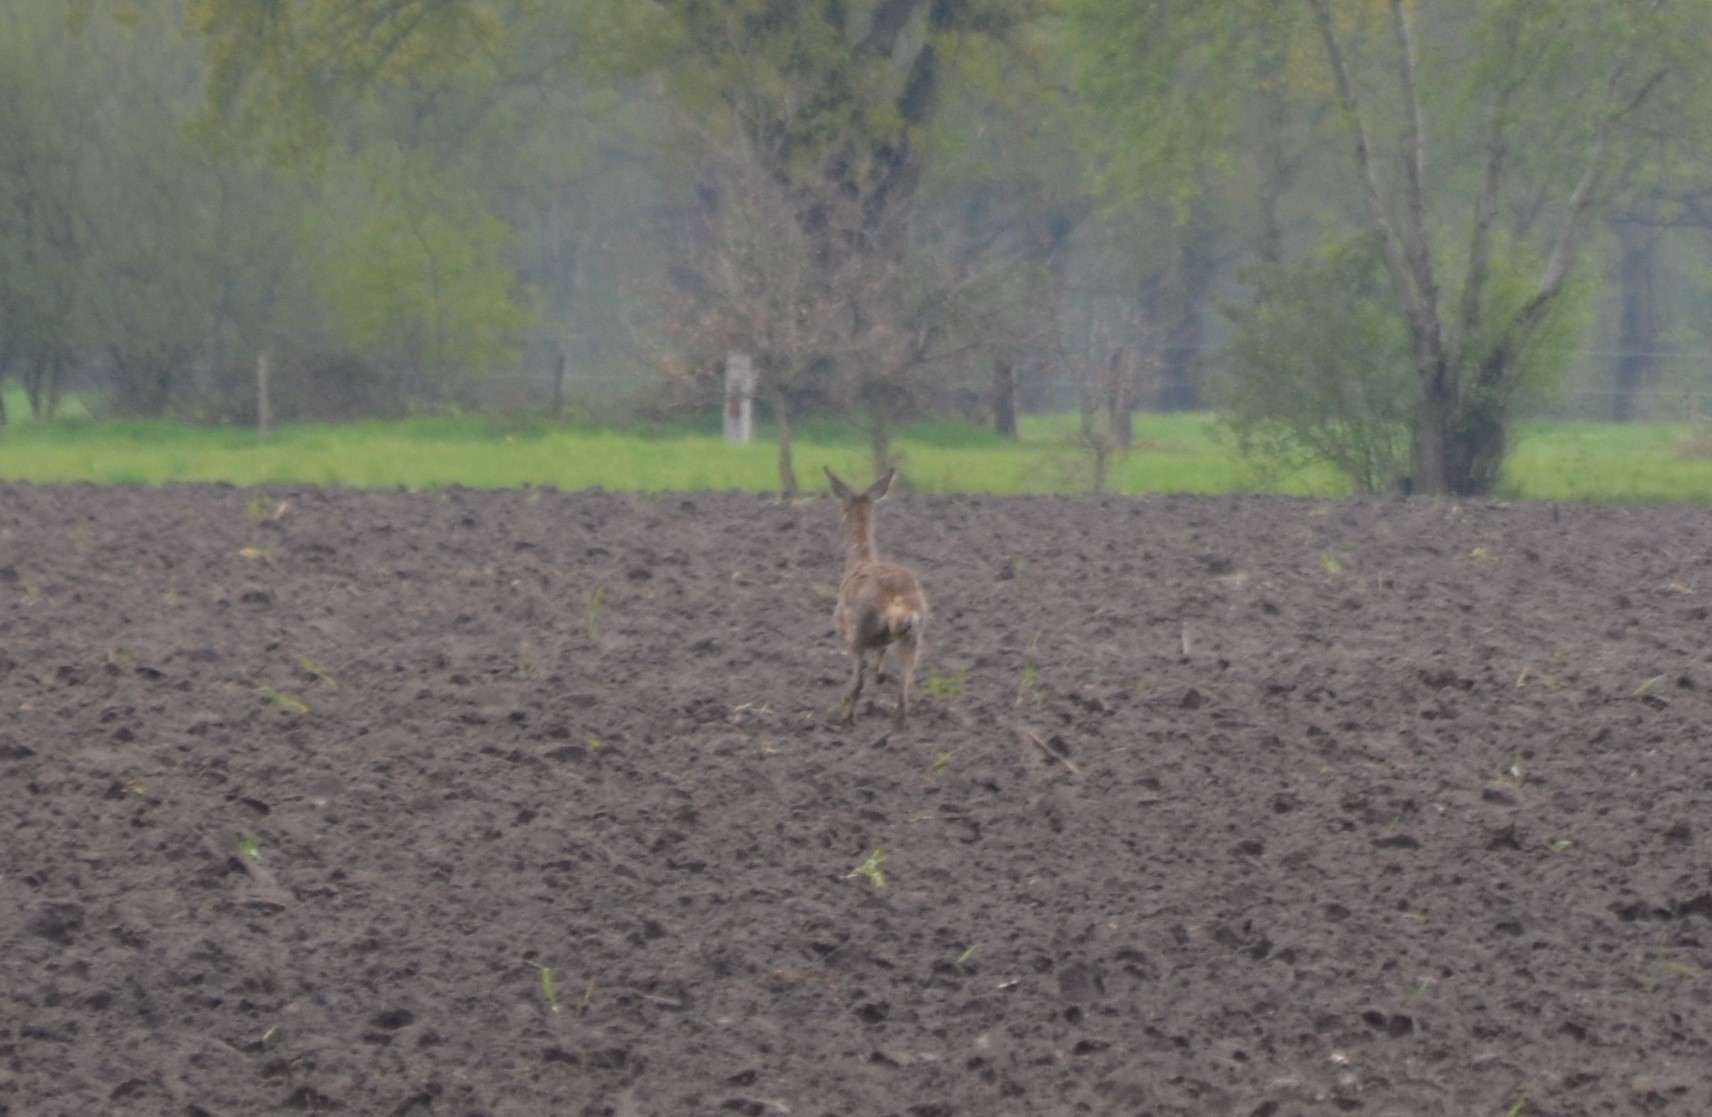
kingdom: Animalia
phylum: Chordata
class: Mammalia
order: Artiodactyla
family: Cervidae
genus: Capreolus
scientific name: Capreolus capreolus
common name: Western roe deer
